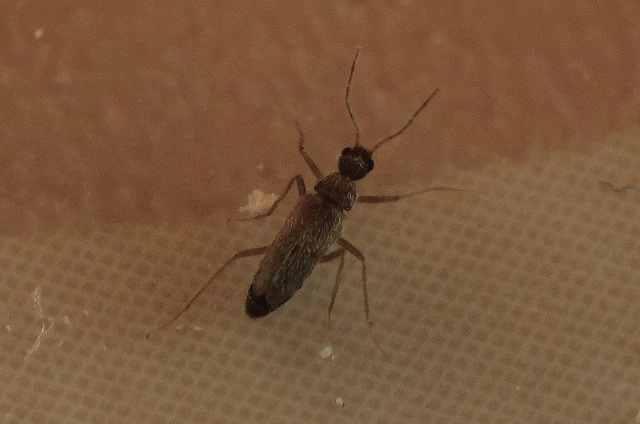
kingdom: Animalia
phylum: Arthropoda
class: Insecta
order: Coleoptera
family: Dermestidae
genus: Thylodrias
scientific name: Thylodrias contractus
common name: Odd beetle
